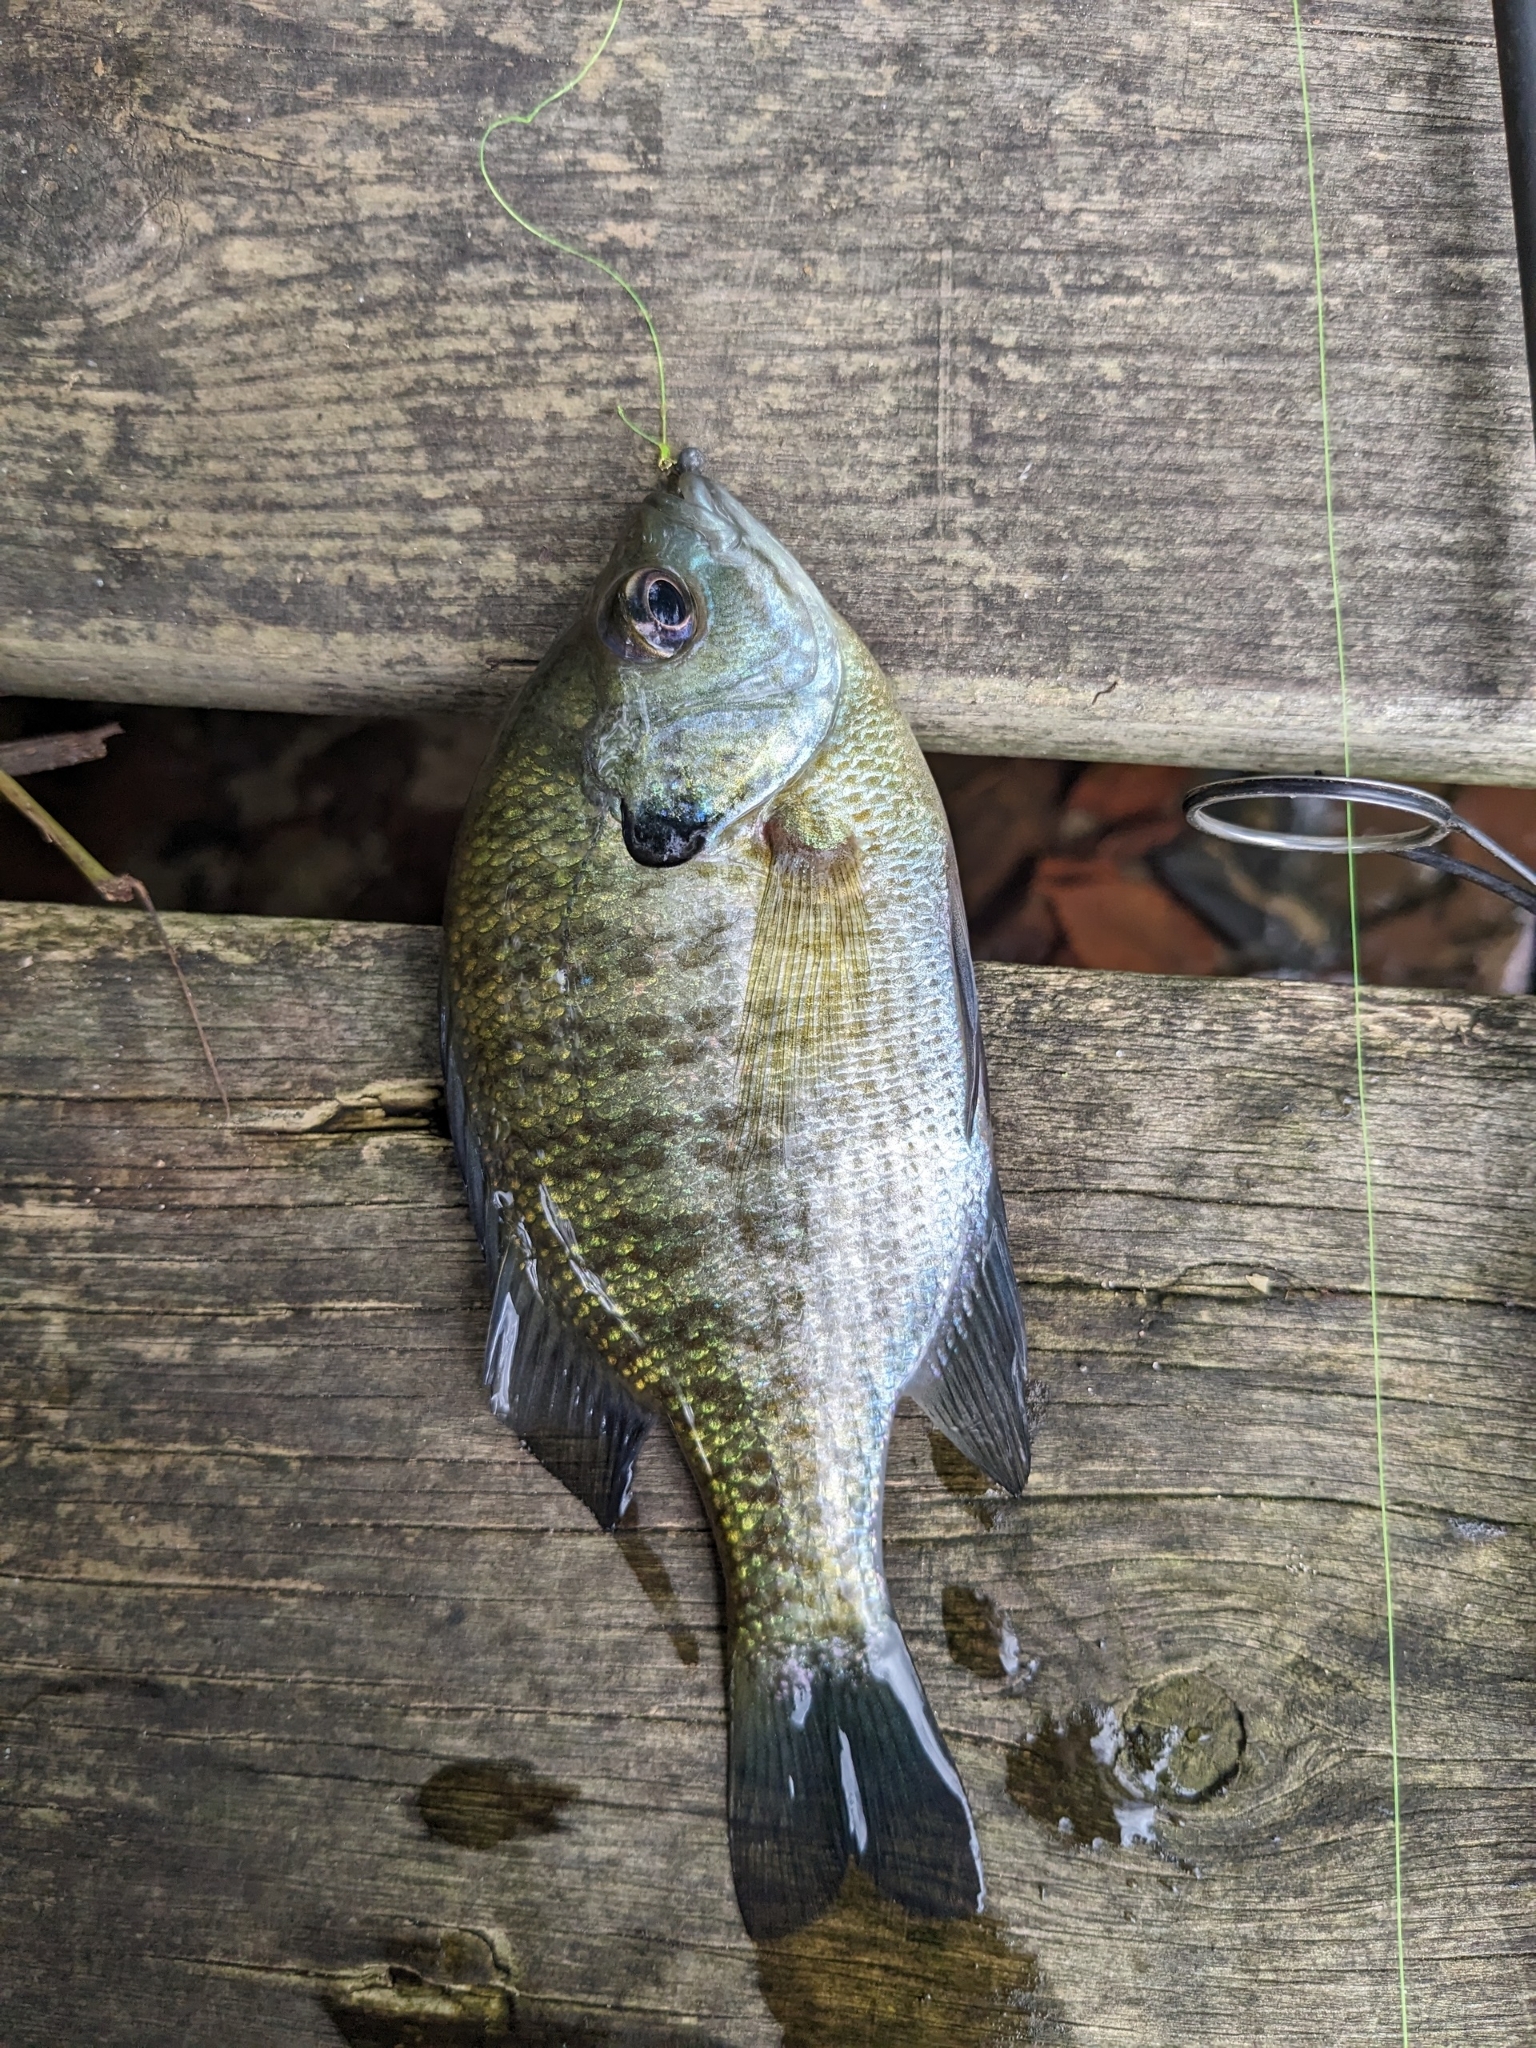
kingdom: Animalia
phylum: Chordata
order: Perciformes
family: Centrarchidae
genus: Lepomis
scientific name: Lepomis macrochirus
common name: Bluegill
